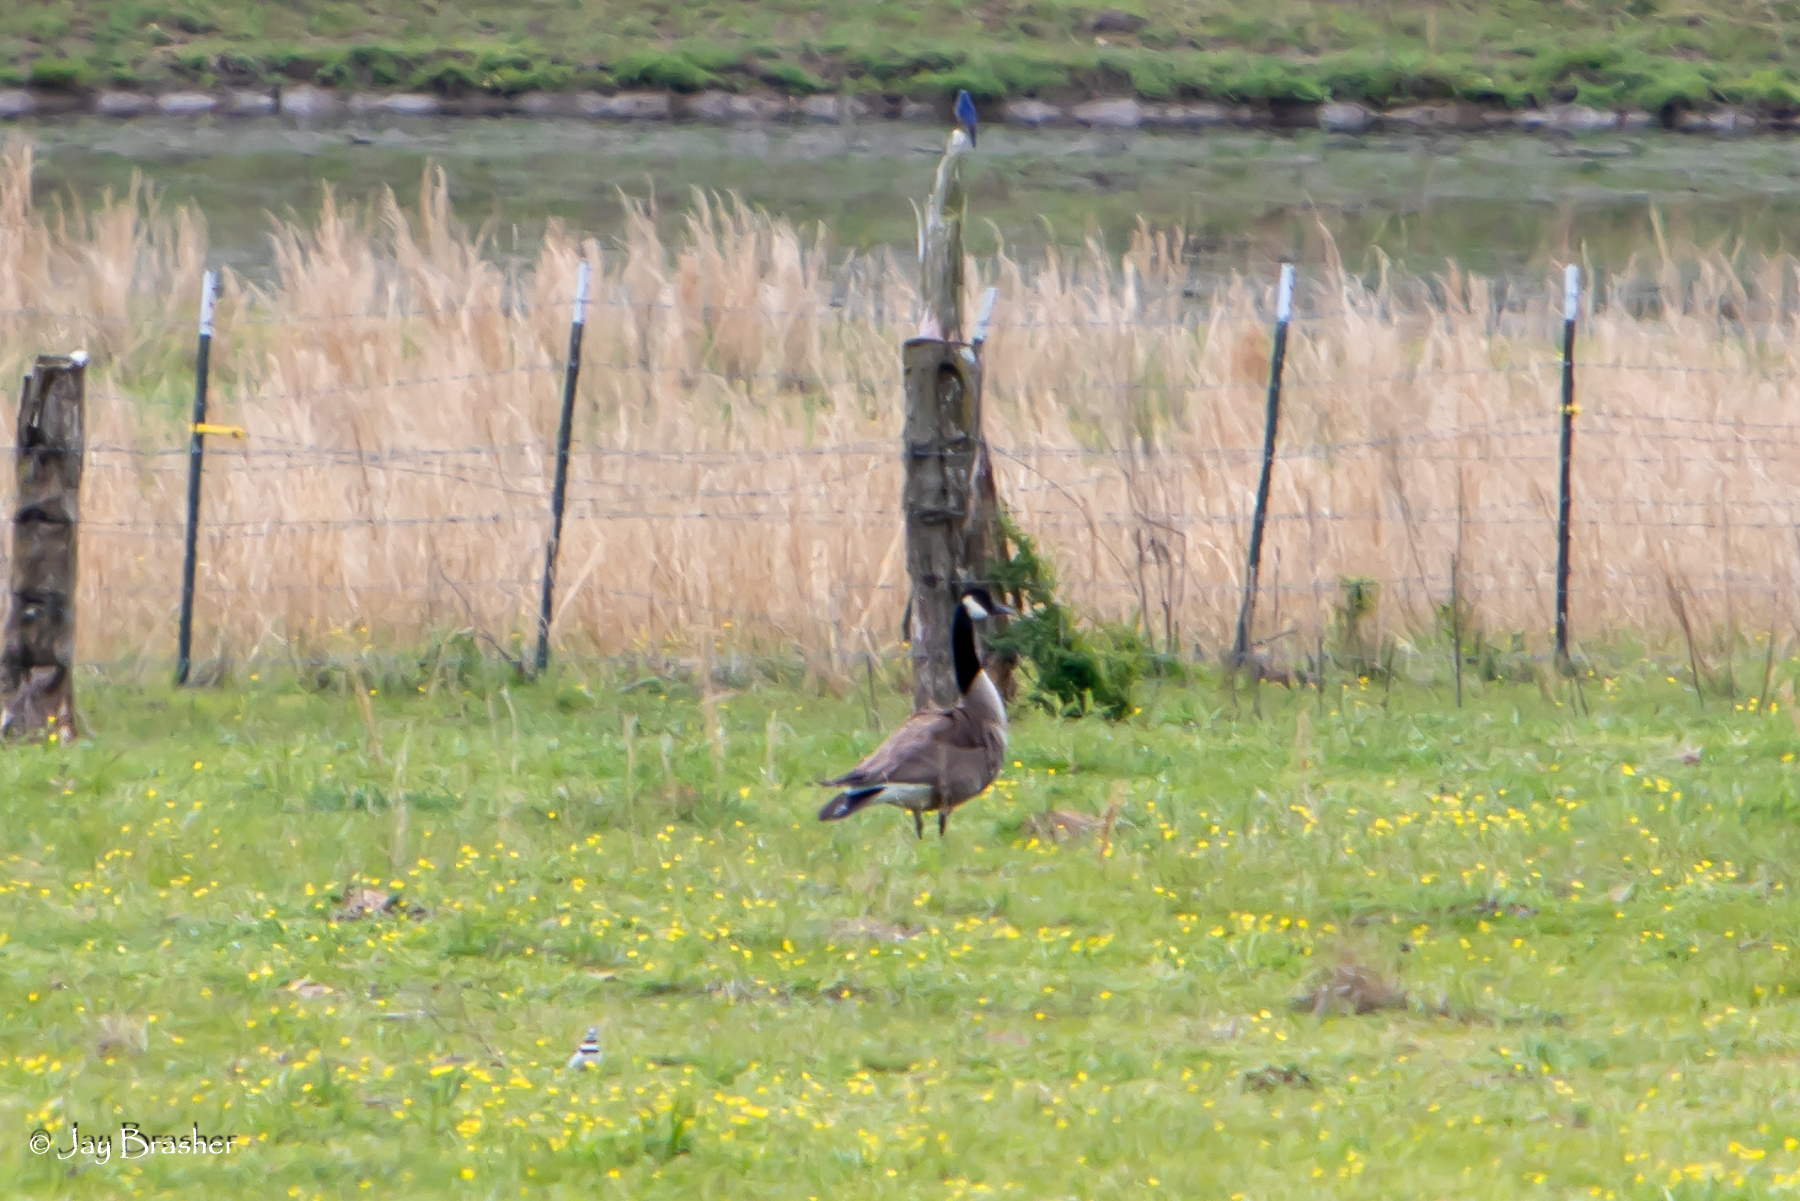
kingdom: Animalia
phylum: Chordata
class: Aves
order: Passeriformes
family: Turdidae
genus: Sialia
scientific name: Sialia sialis
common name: Eastern bluebird
